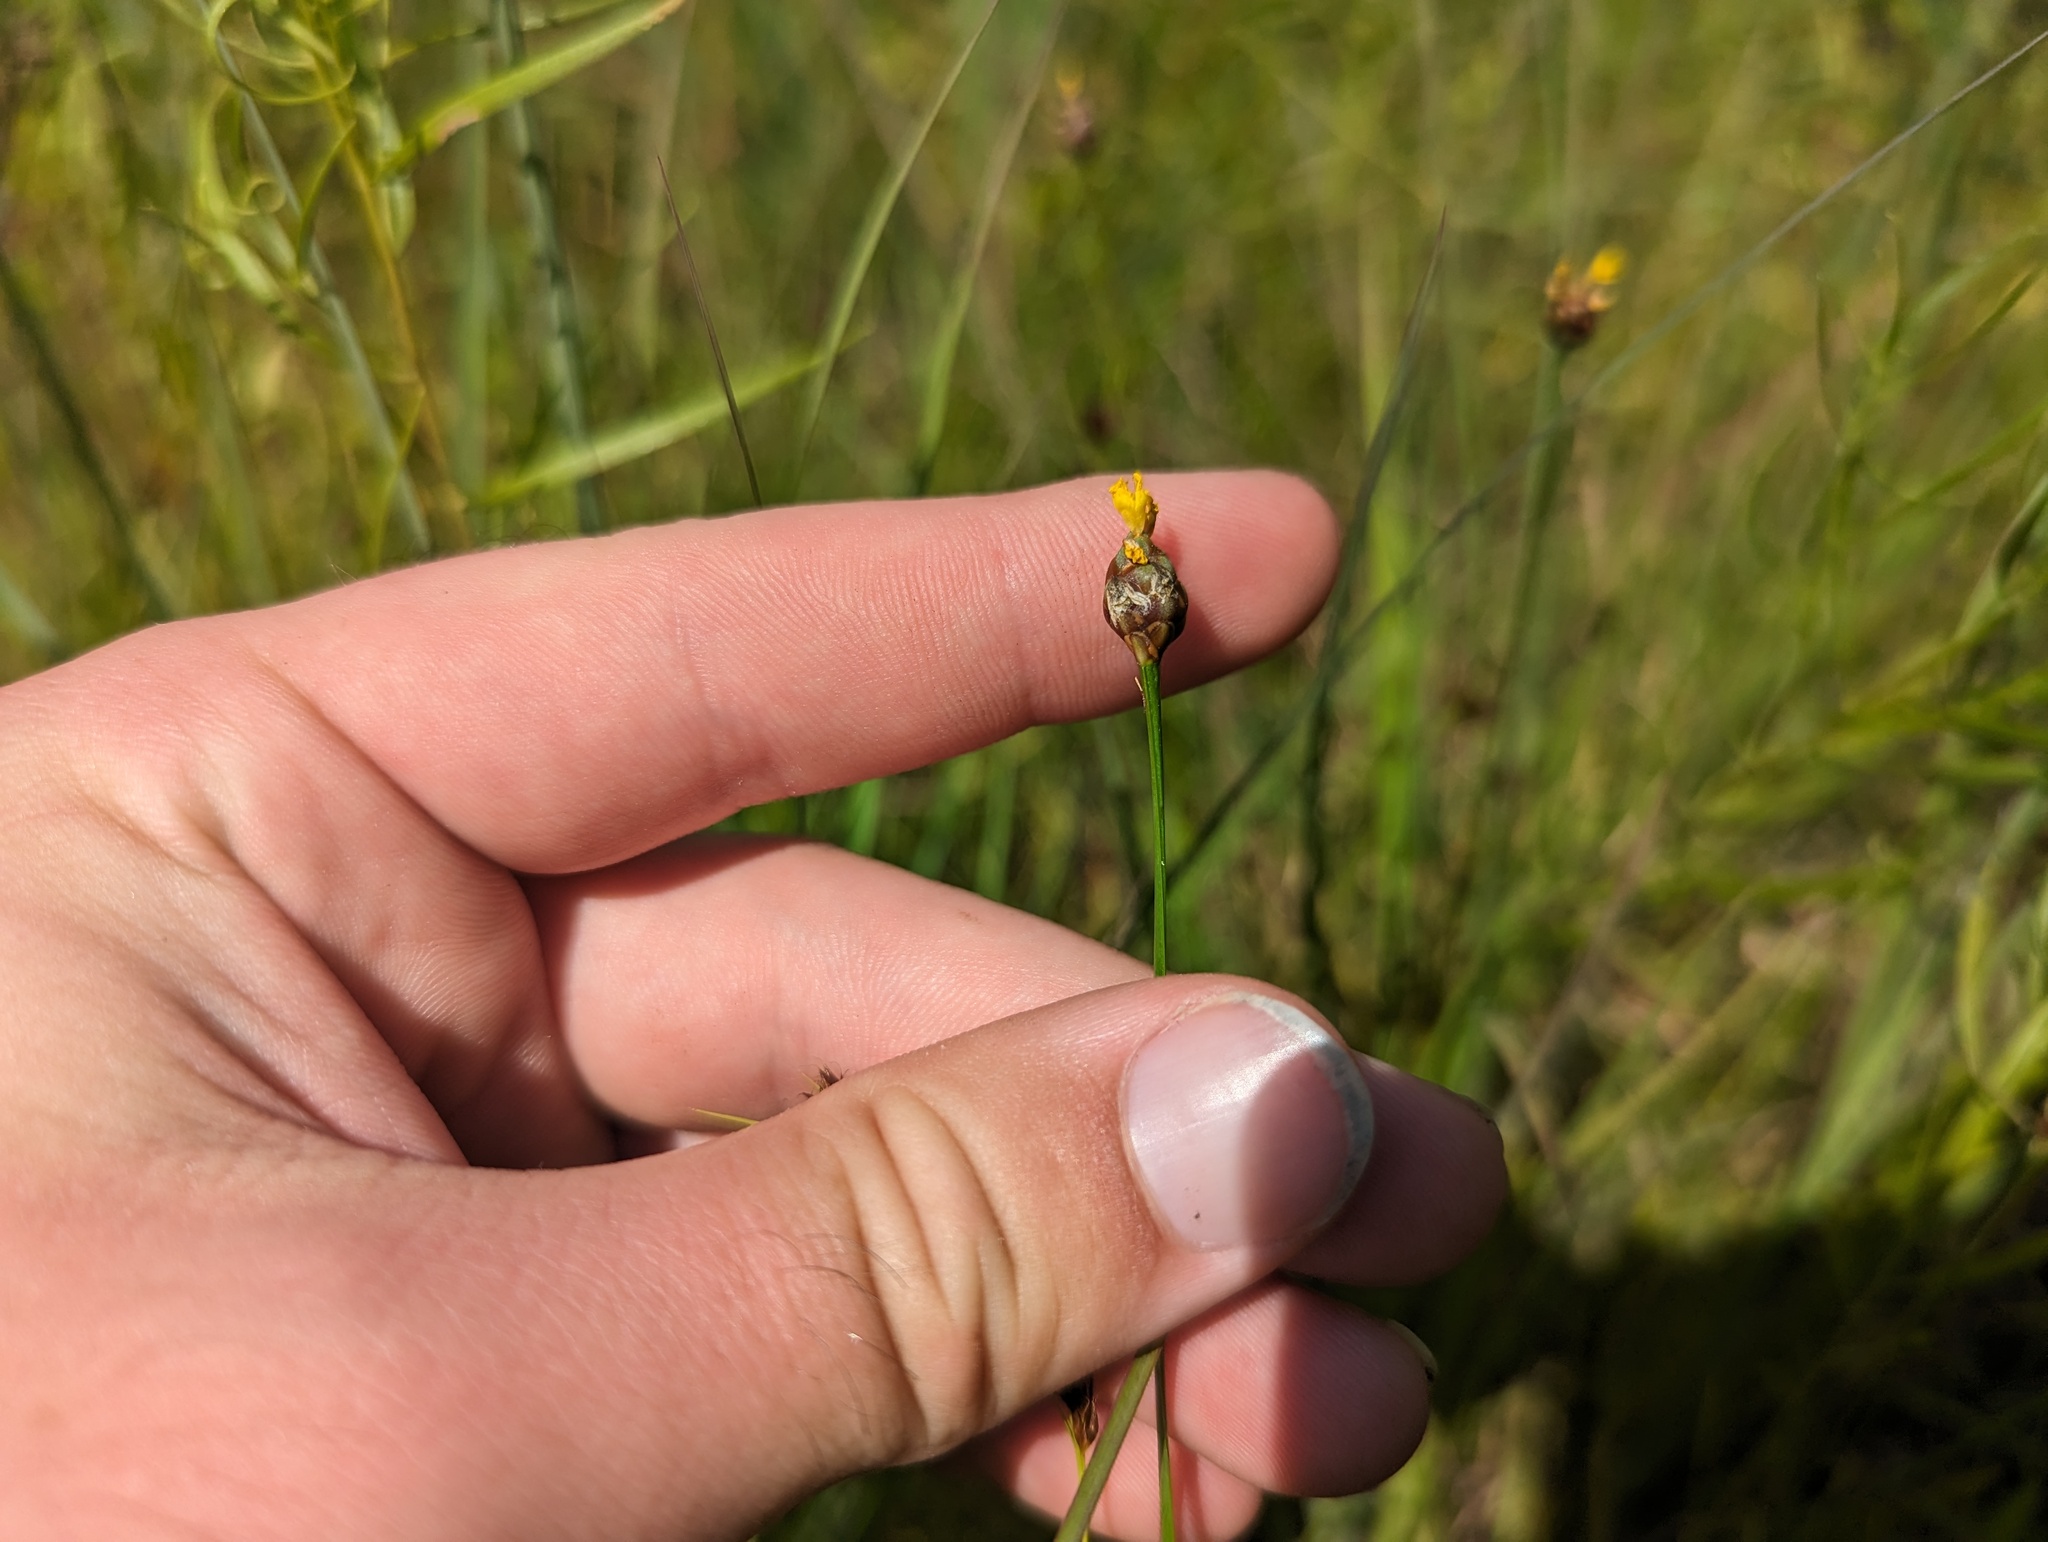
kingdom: Plantae
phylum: Tracheophyta
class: Liliopsida
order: Poales
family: Xyridaceae
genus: Xyris
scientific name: Xyris torta
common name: Common yelloweyed grass
